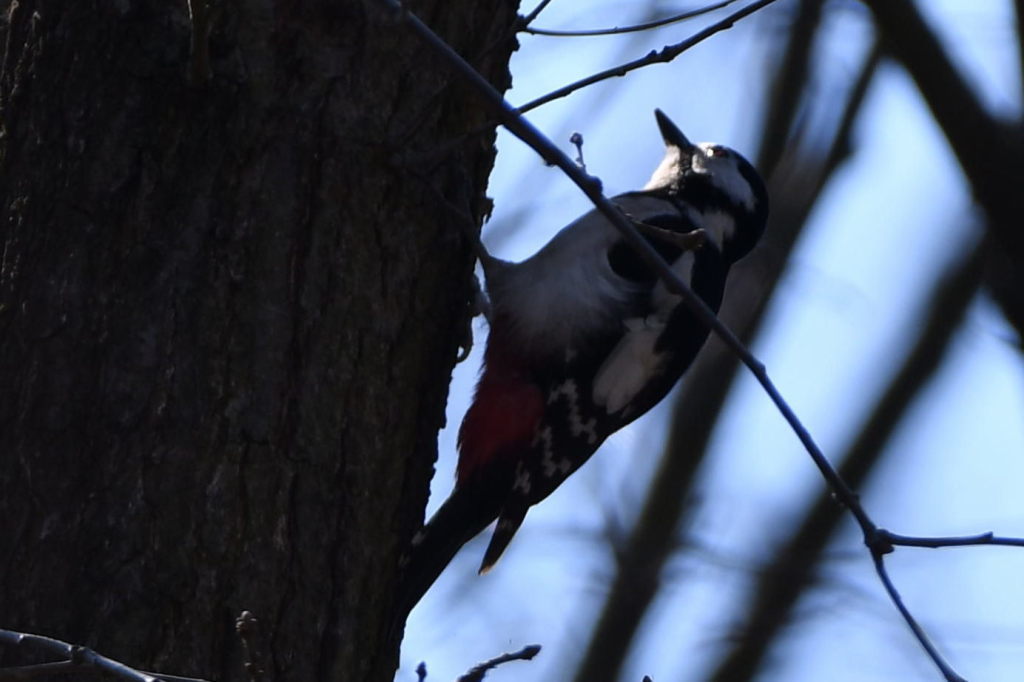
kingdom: Animalia
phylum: Chordata
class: Aves
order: Piciformes
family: Picidae
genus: Dendrocopos
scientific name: Dendrocopos major
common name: Great spotted woodpecker
